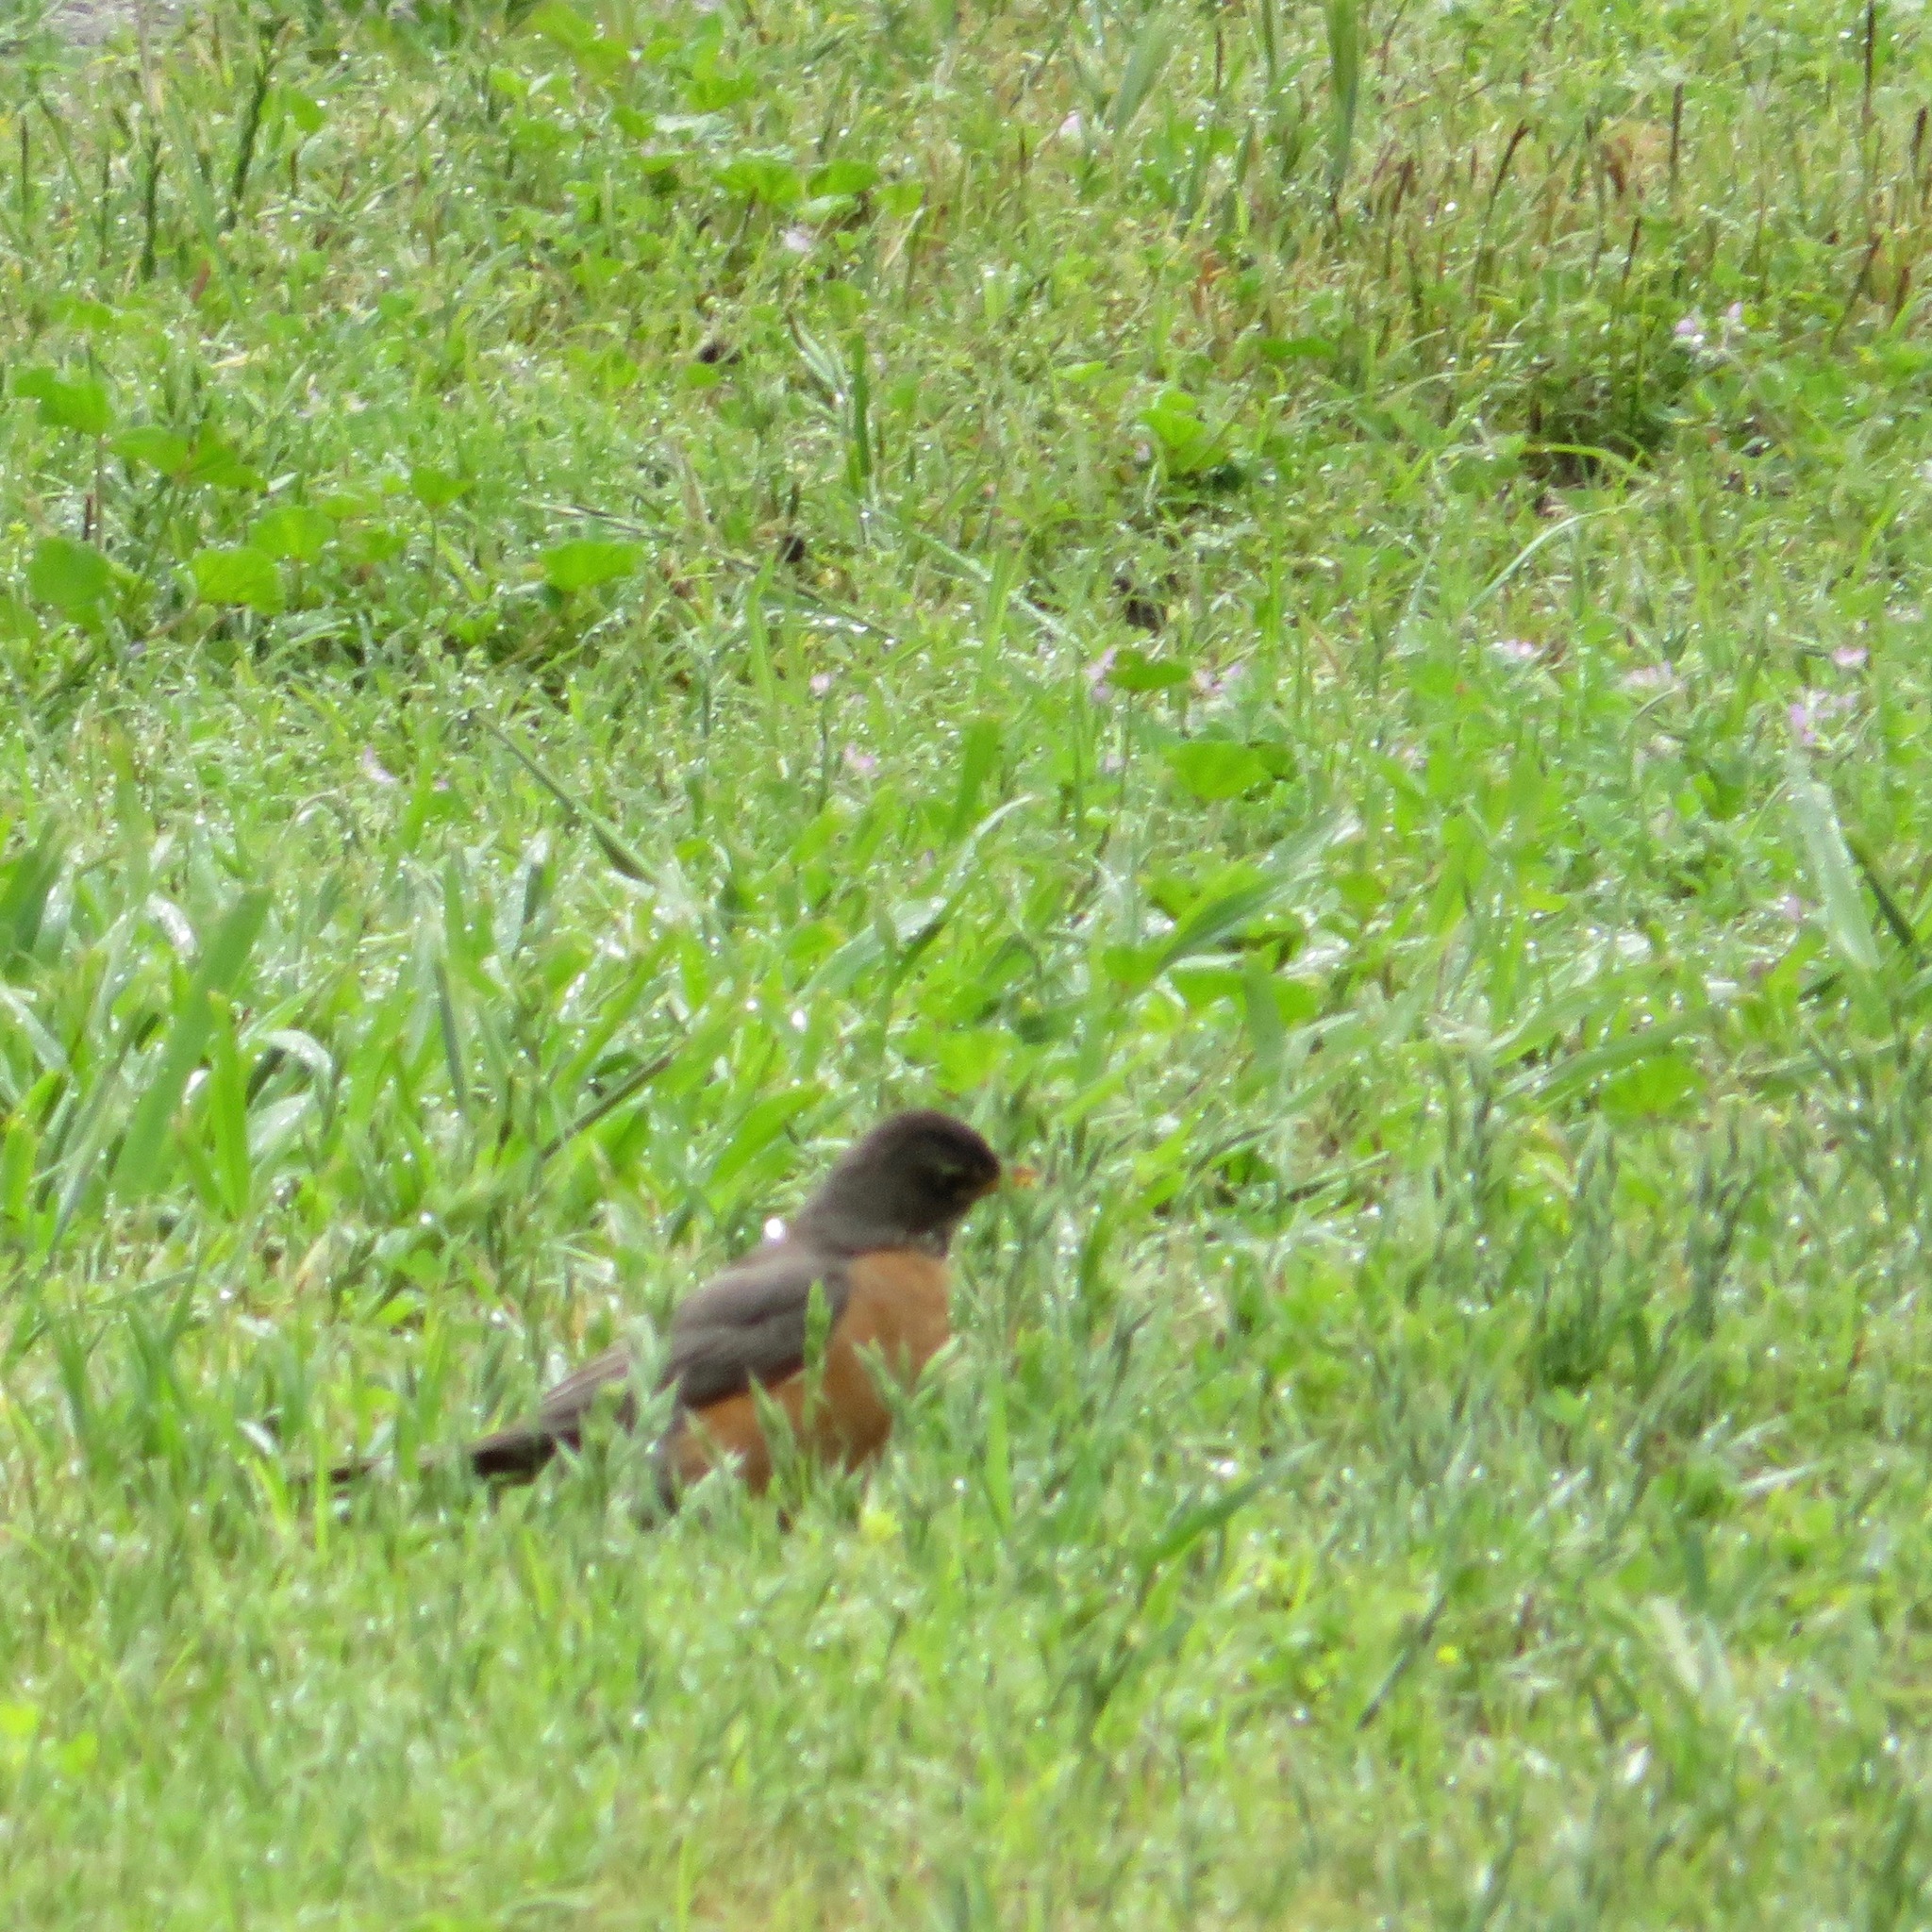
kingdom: Animalia
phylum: Chordata
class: Aves
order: Passeriformes
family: Turdidae
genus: Turdus
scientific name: Turdus migratorius
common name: American robin
